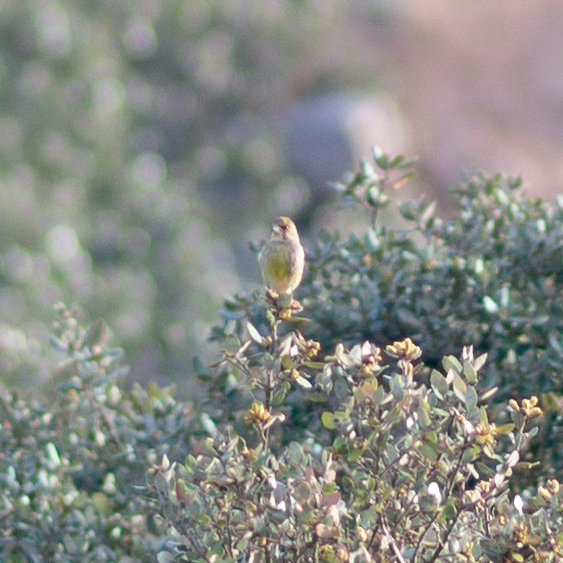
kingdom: Plantae
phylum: Tracheophyta
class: Liliopsida
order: Poales
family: Poaceae
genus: Chloris
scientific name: Chloris chloris
